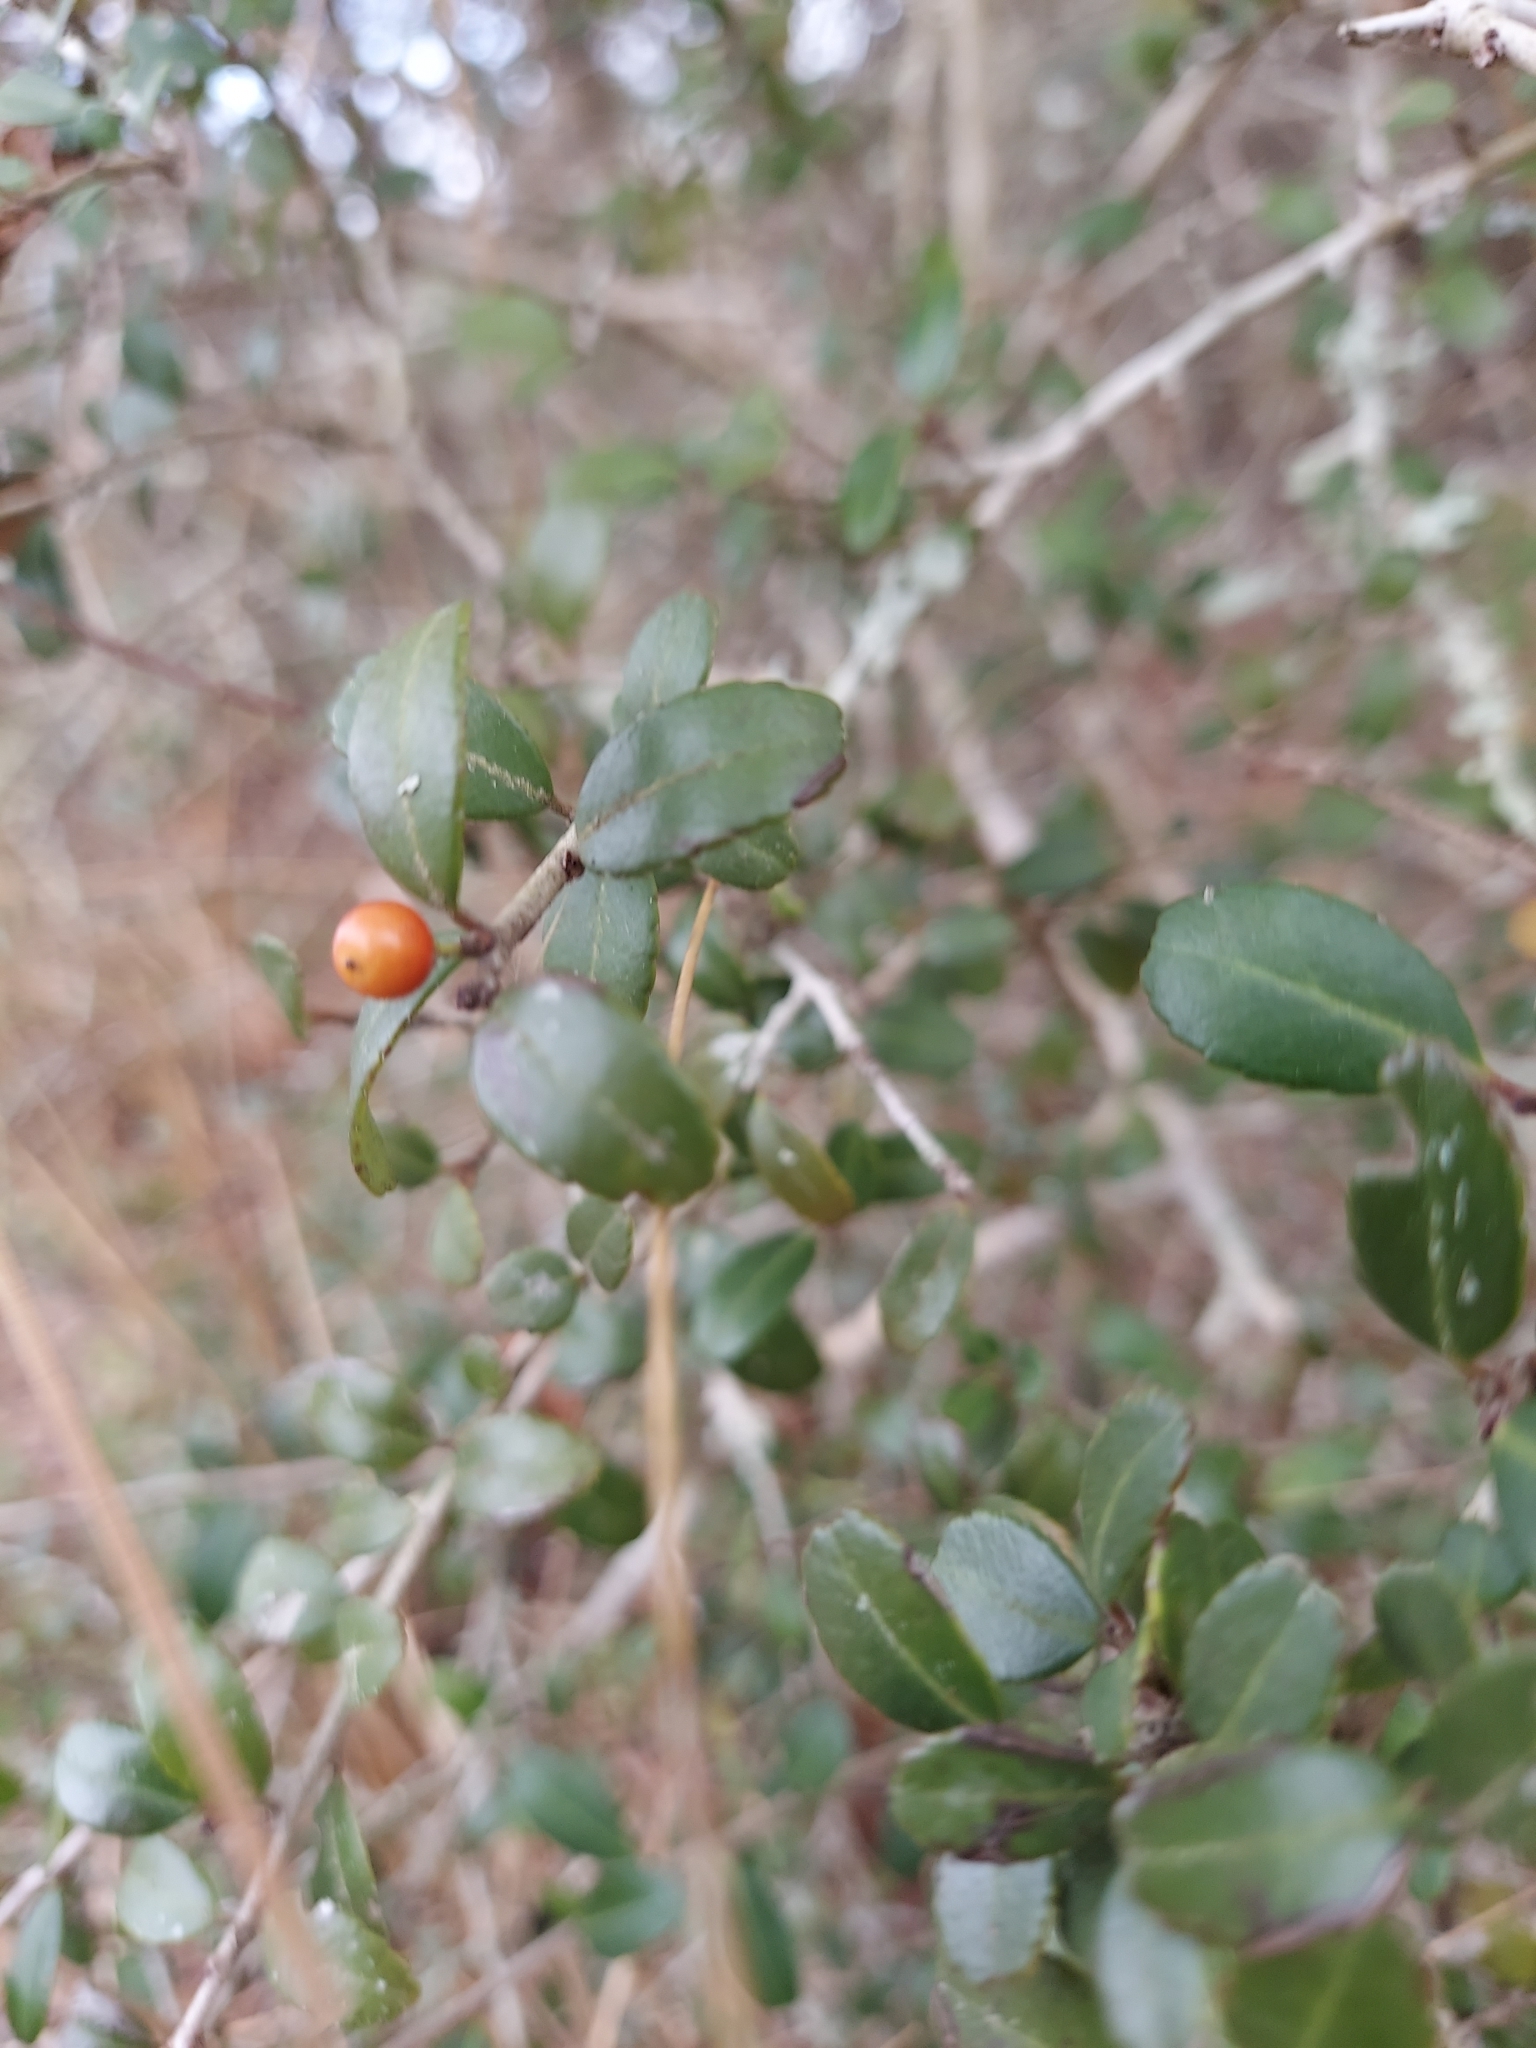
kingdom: Plantae
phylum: Tracheophyta
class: Magnoliopsida
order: Aquifoliales
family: Aquifoliaceae
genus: Ilex
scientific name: Ilex vomitoria
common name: Yaupon holly
